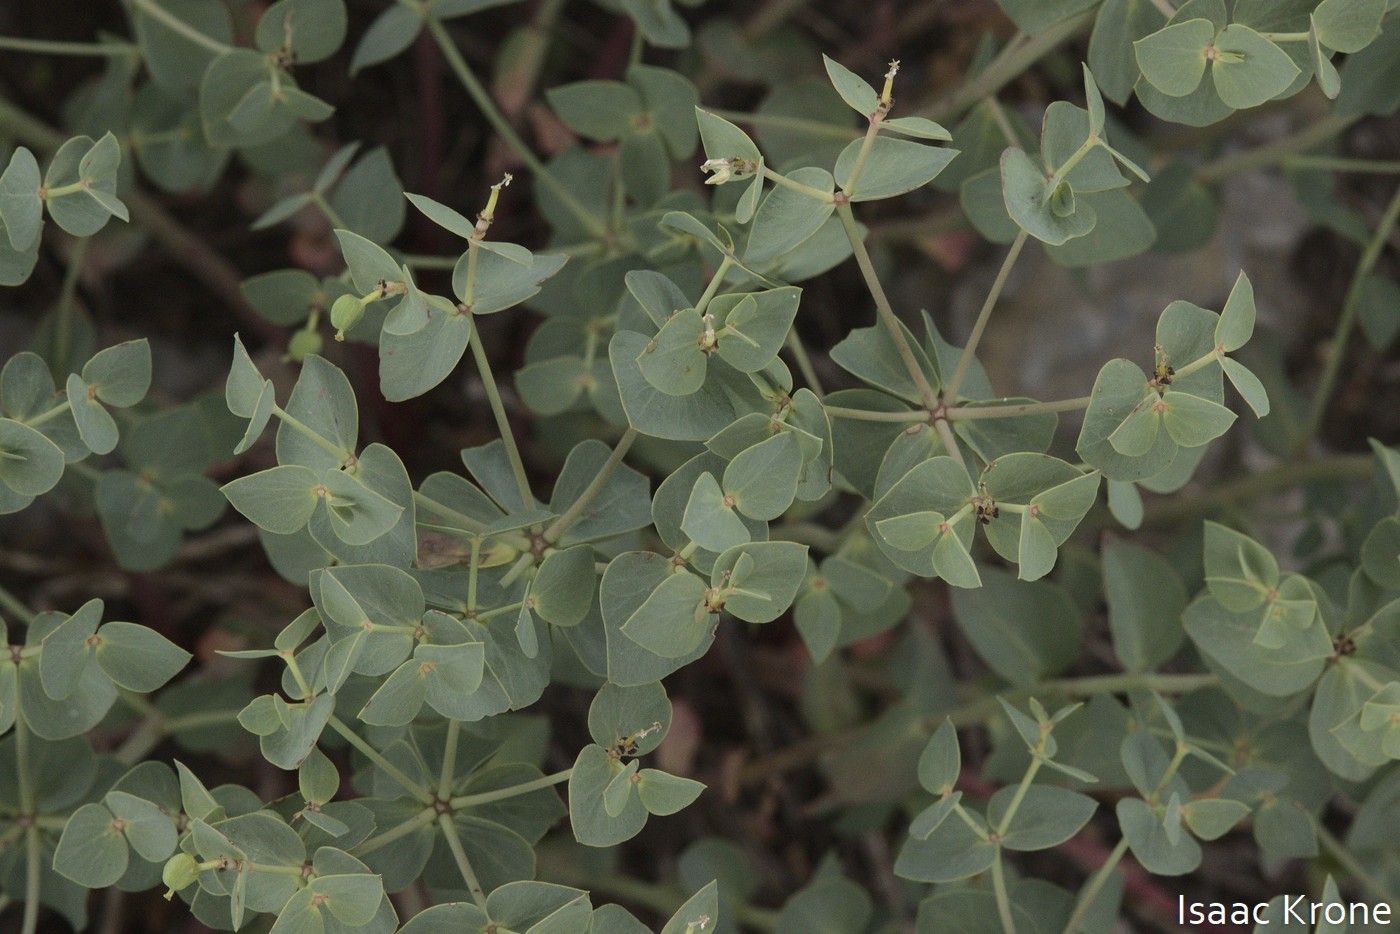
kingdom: Plantae
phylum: Tracheophyta
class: Magnoliopsida
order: Malpighiales
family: Euphorbiaceae
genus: Euphorbia
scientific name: Euphorbia brachycera
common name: Shorthorn spurge
